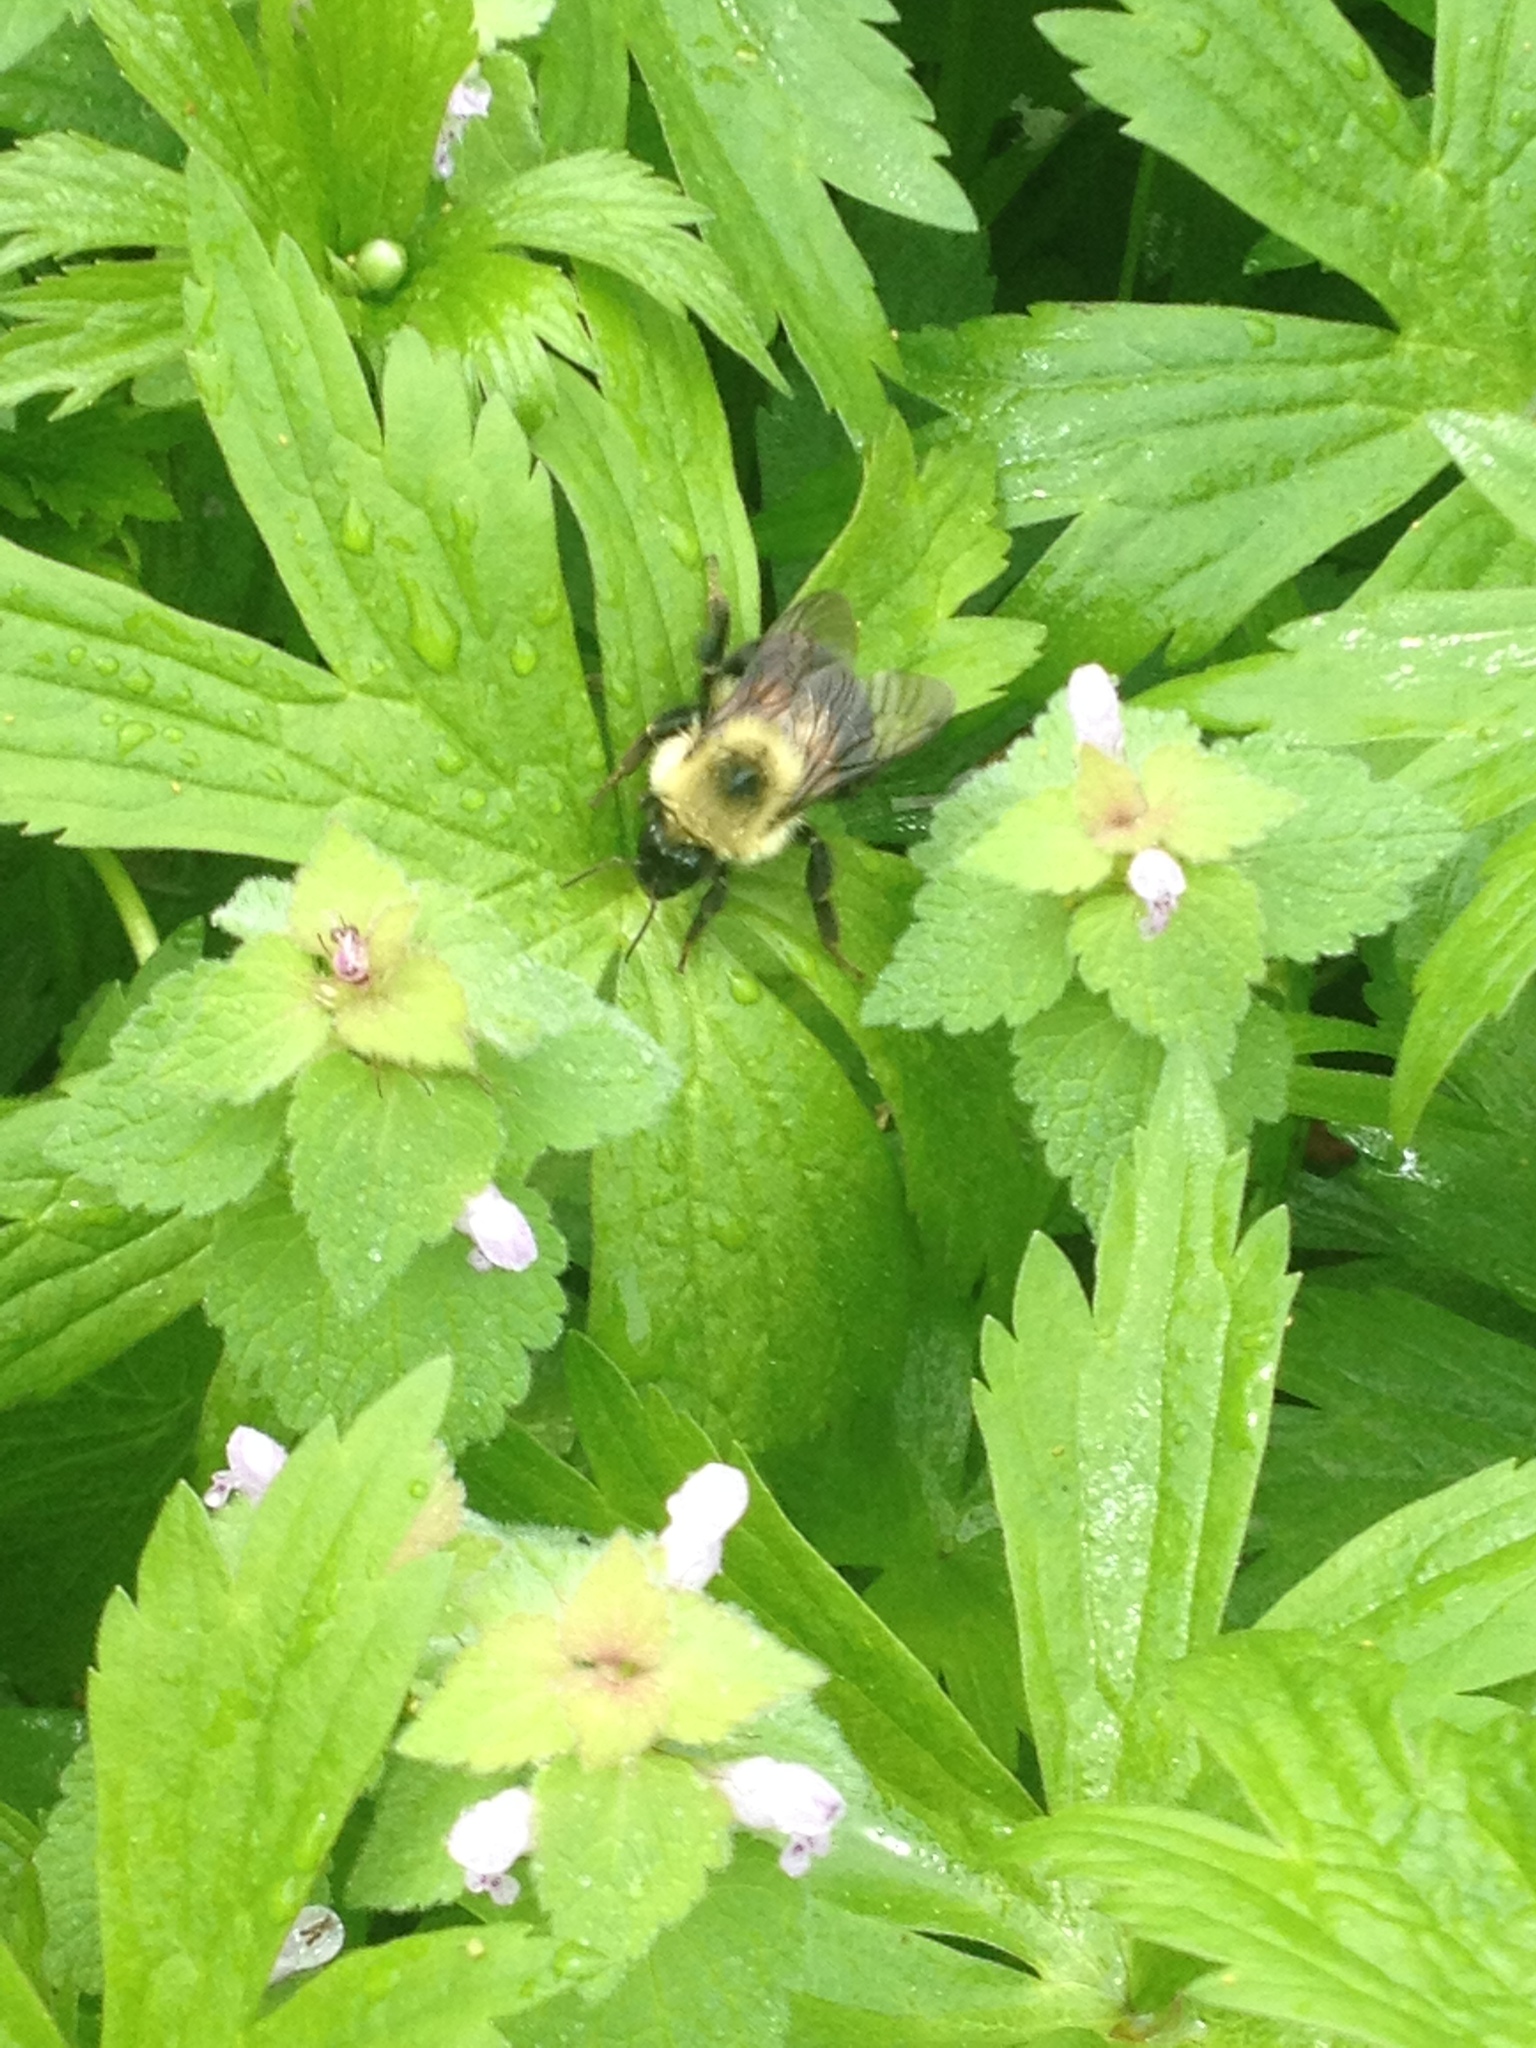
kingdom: Animalia
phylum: Arthropoda
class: Insecta
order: Hymenoptera
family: Apidae
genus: Bombus
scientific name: Bombus bimaculatus
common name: Two-spotted bumble bee
